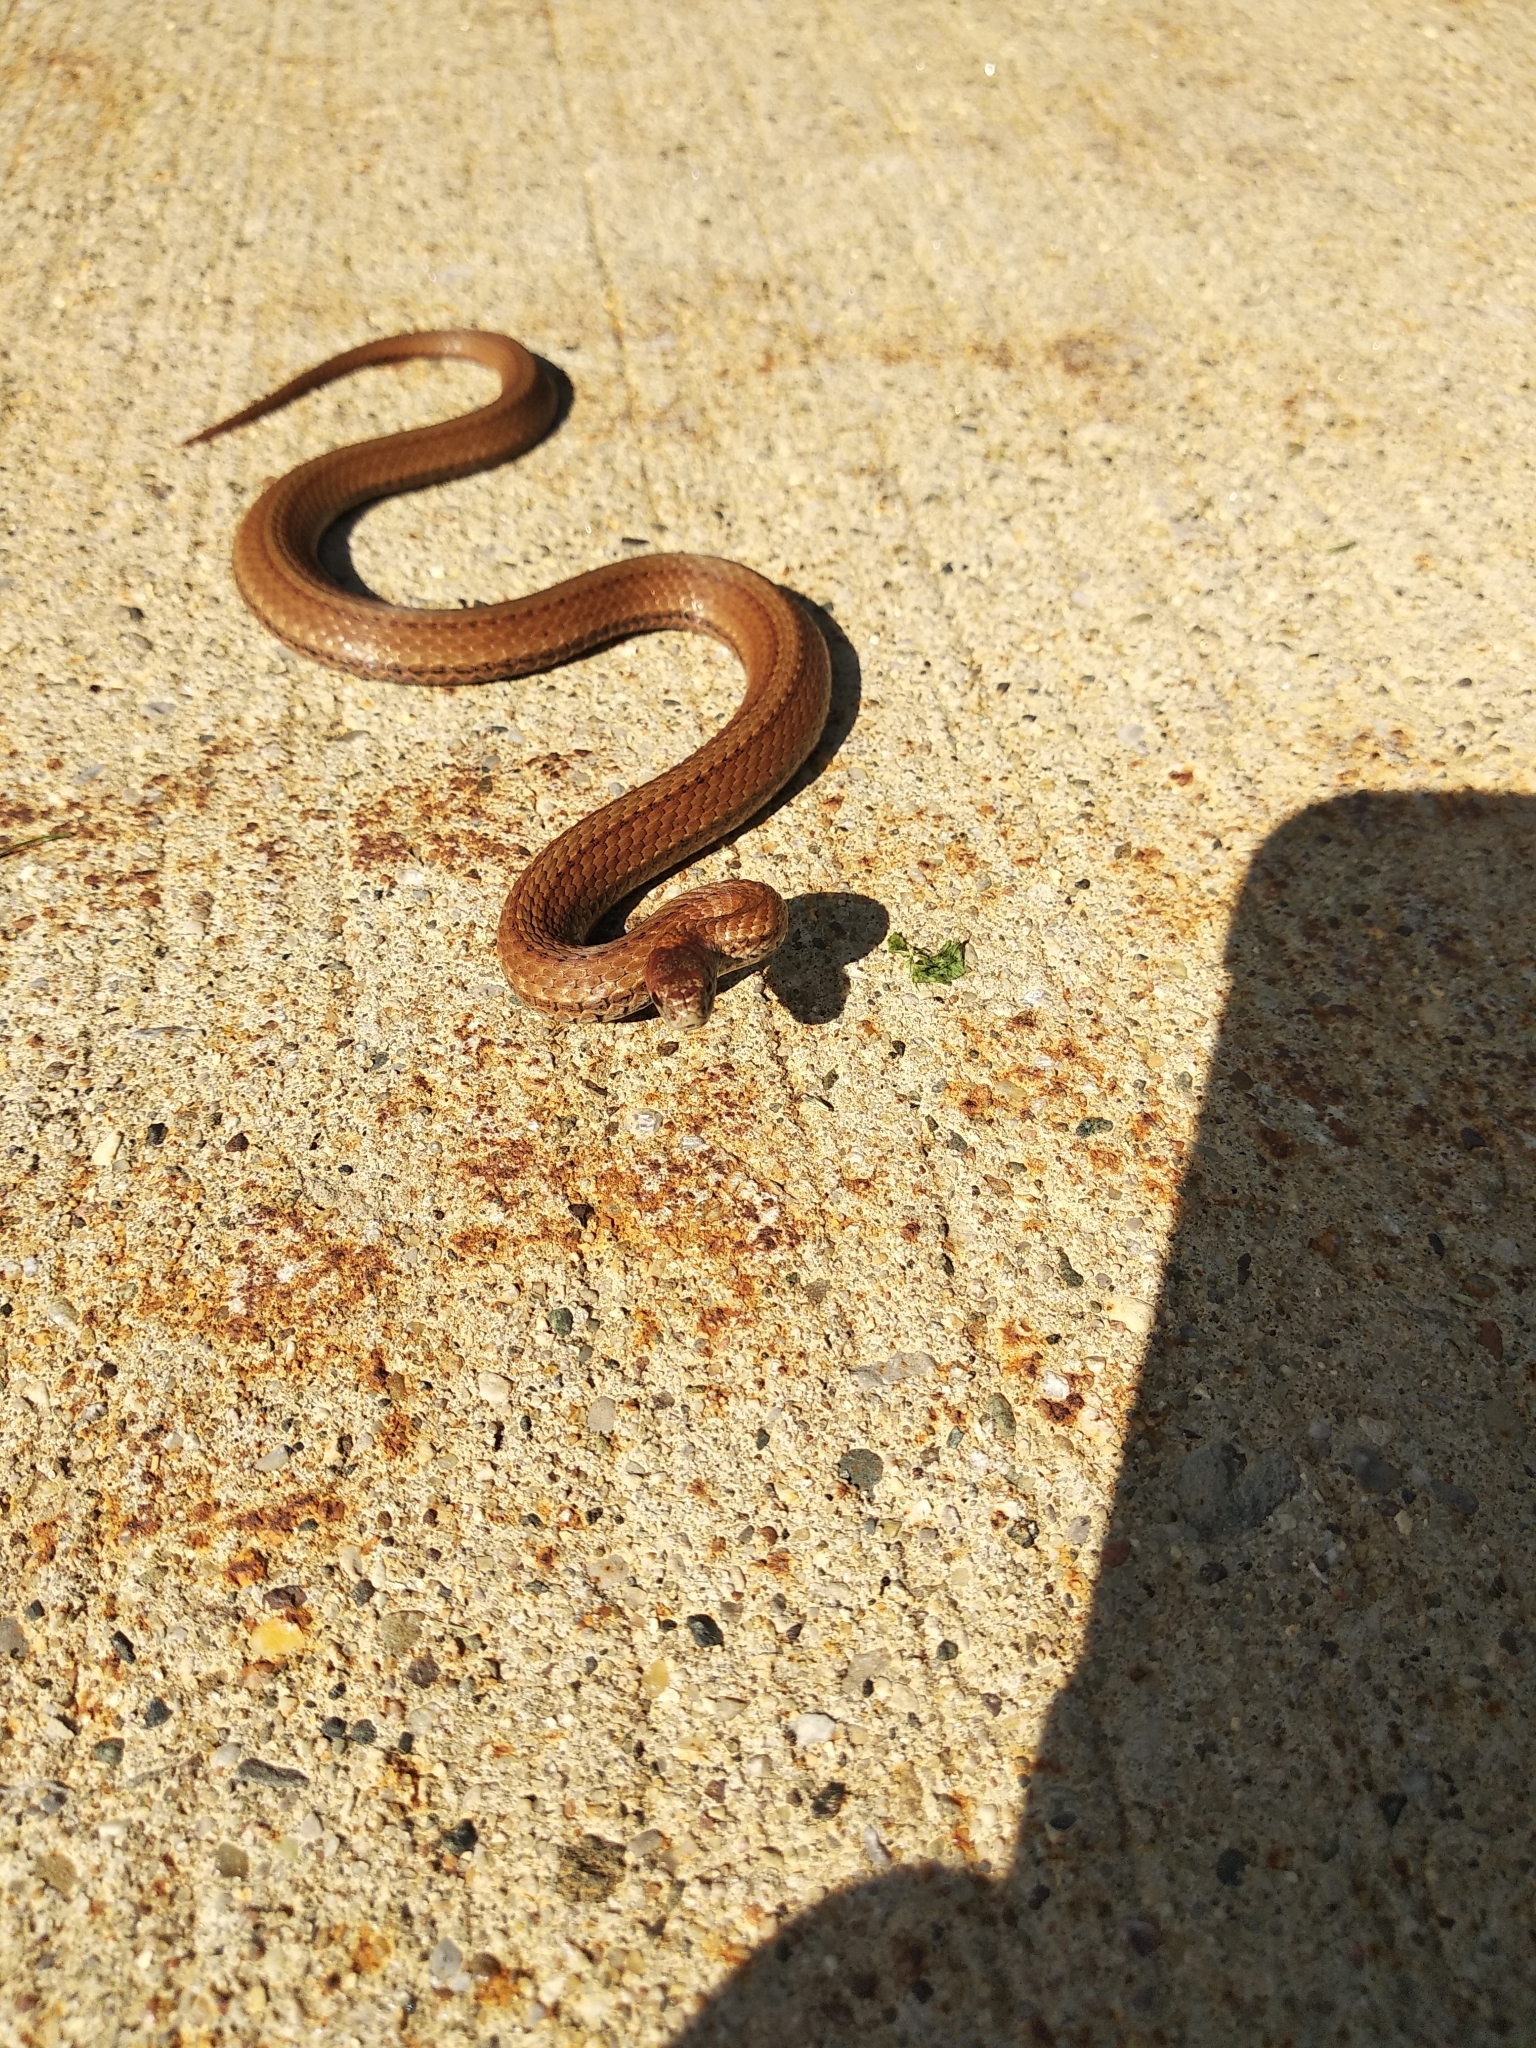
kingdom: Animalia
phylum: Chordata
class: Squamata
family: Colubridae
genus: Storeria
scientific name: Storeria occipitomaculata
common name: Redbelly snake
